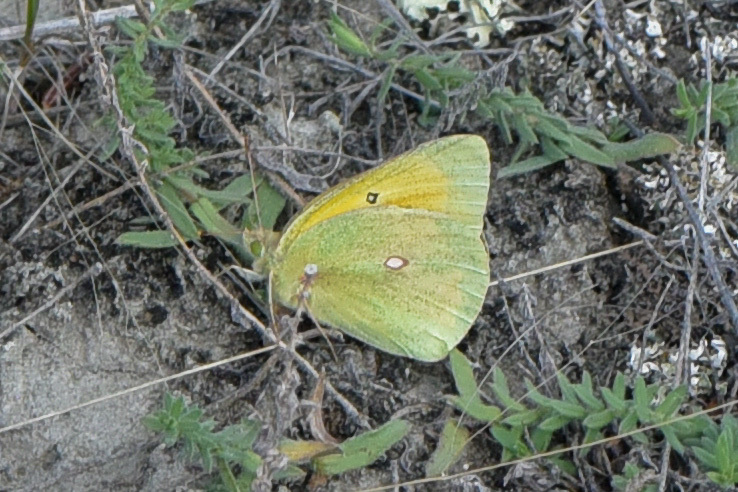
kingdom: Animalia
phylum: Arthropoda
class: Insecta
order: Lepidoptera
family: Pieridae
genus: Colias
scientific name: Colias christina
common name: Christina sulphur
